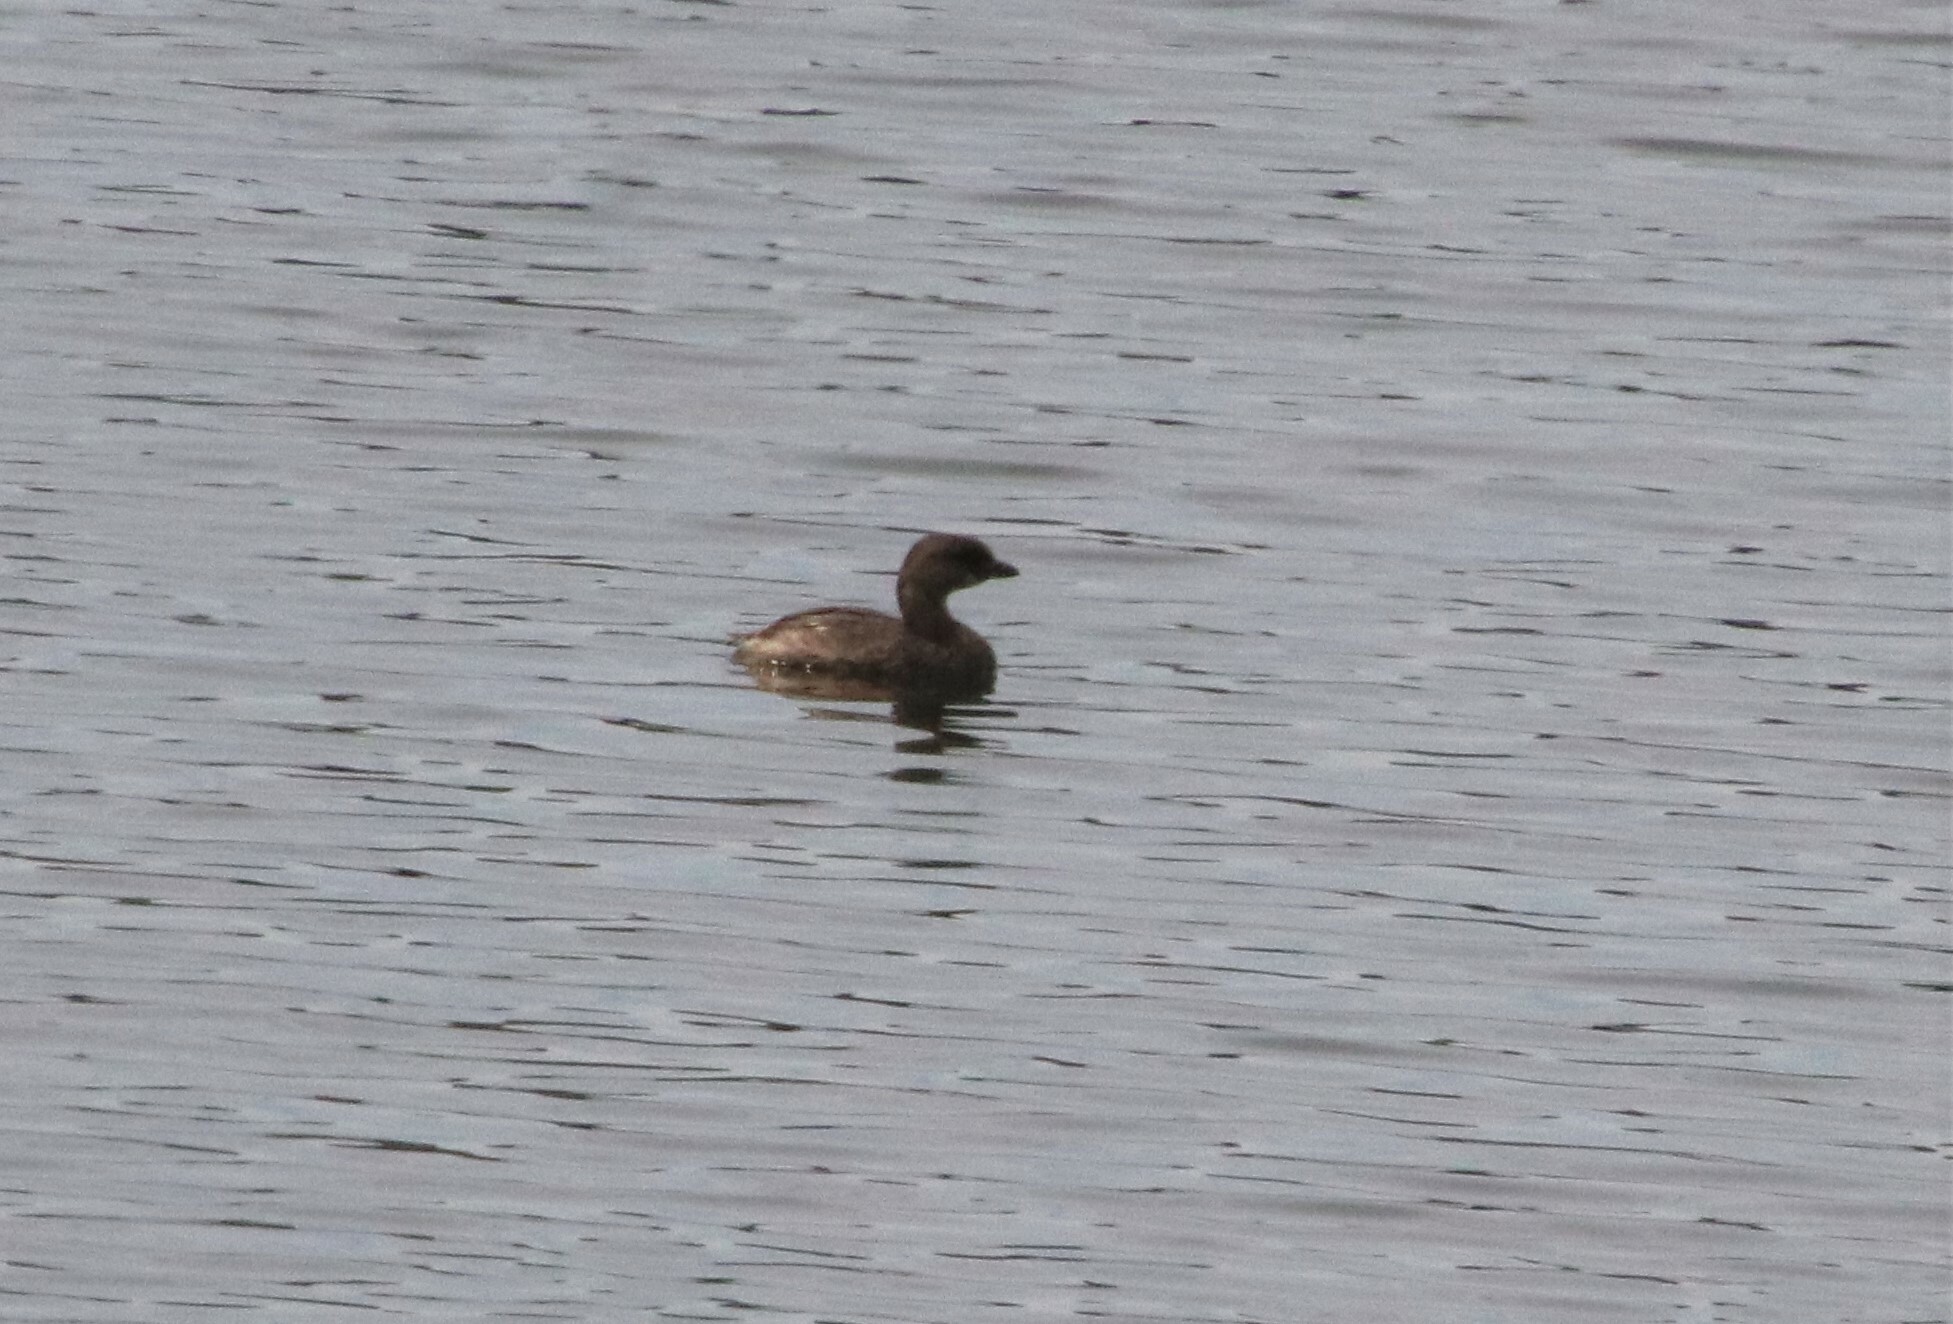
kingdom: Animalia
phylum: Chordata
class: Aves
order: Podicipediformes
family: Podicipedidae
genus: Podilymbus
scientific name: Podilymbus podiceps
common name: Pied-billed grebe
